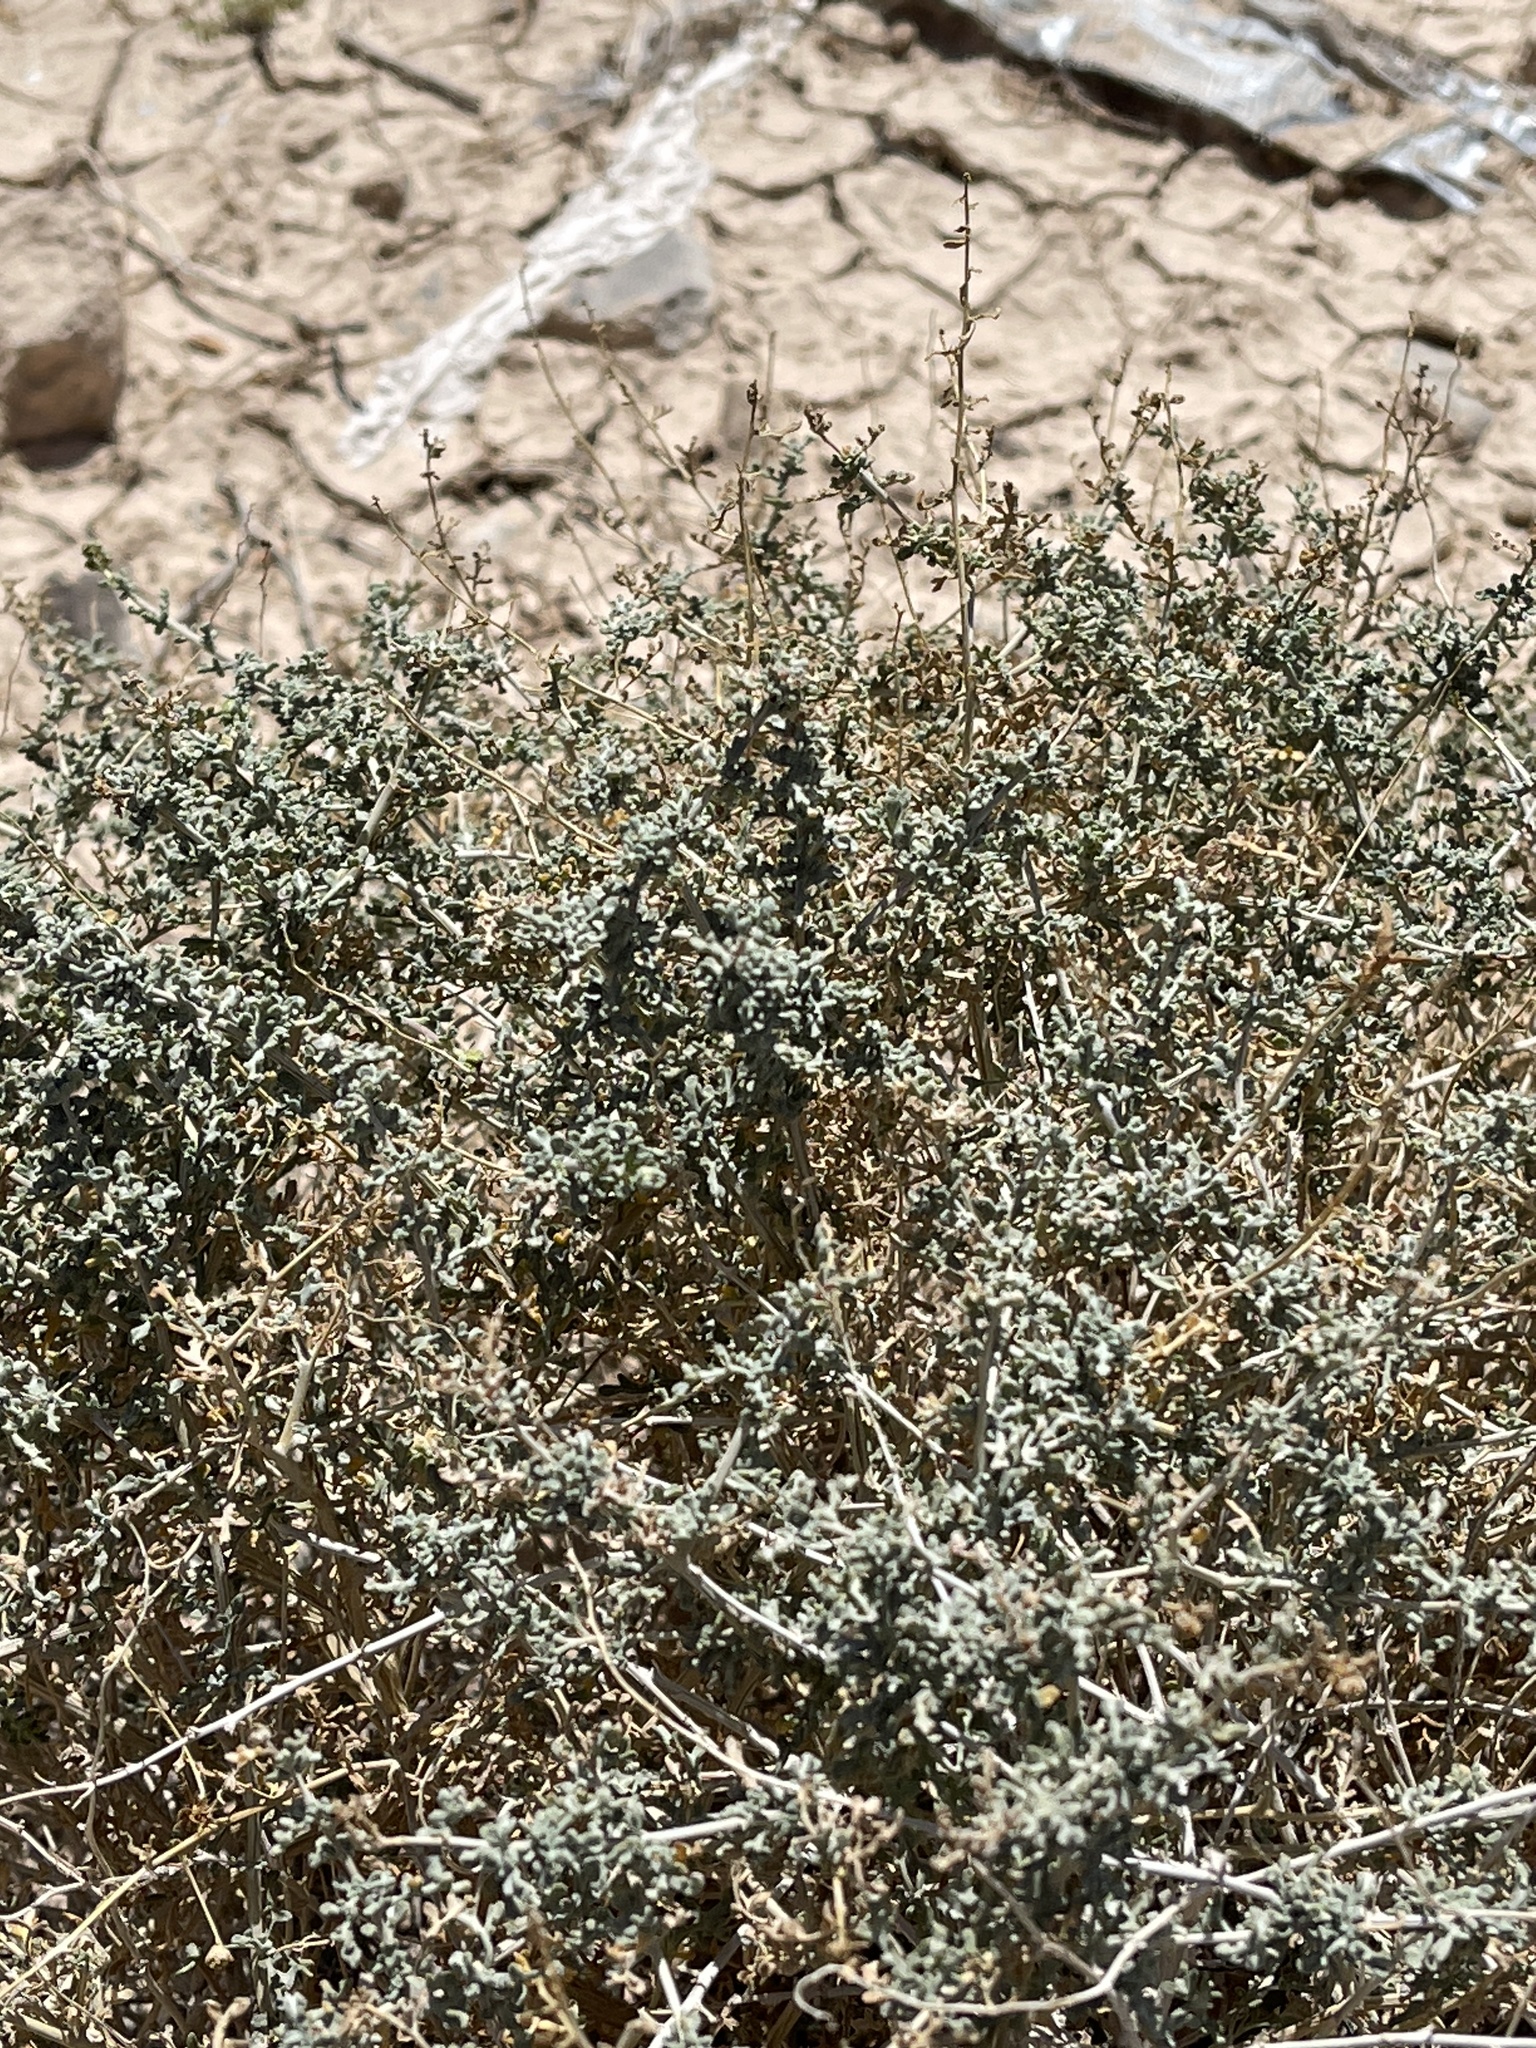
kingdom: Plantae
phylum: Tracheophyta
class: Magnoliopsida
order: Asterales
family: Asteraceae
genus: Ambrosia
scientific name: Ambrosia dumosa
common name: Bur-sage
